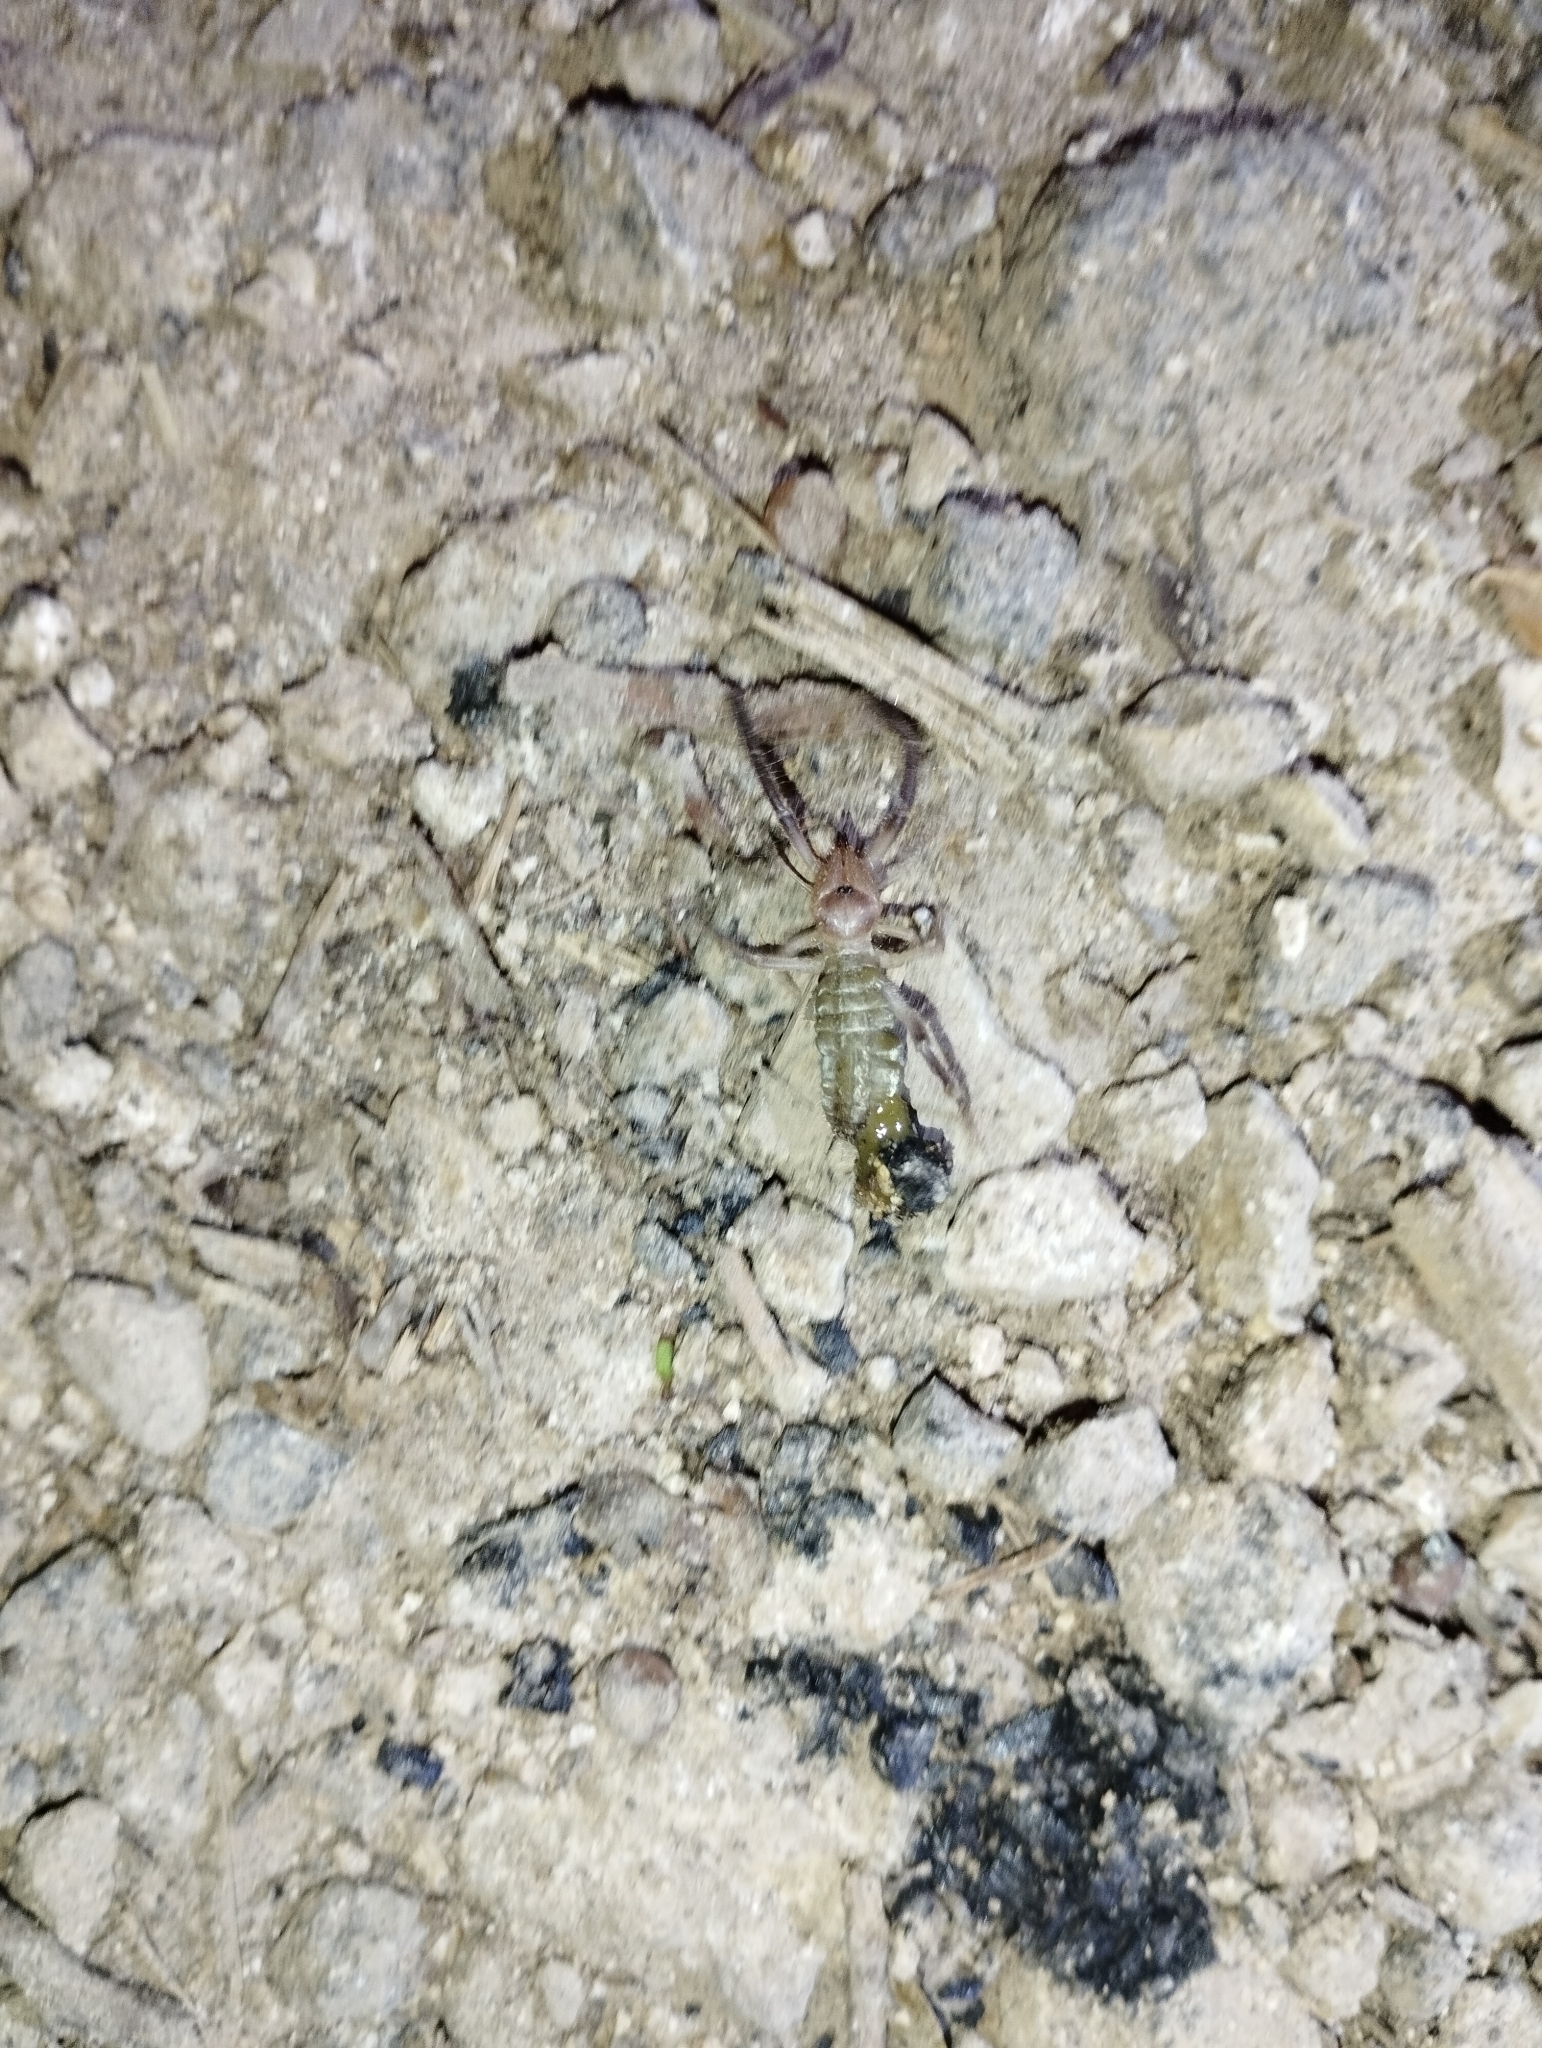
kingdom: Animalia
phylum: Arthropoda
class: Arachnida
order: Solifugae
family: Ammotrechidae
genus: Ammotrecha
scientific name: Ammotrecha itzaana
